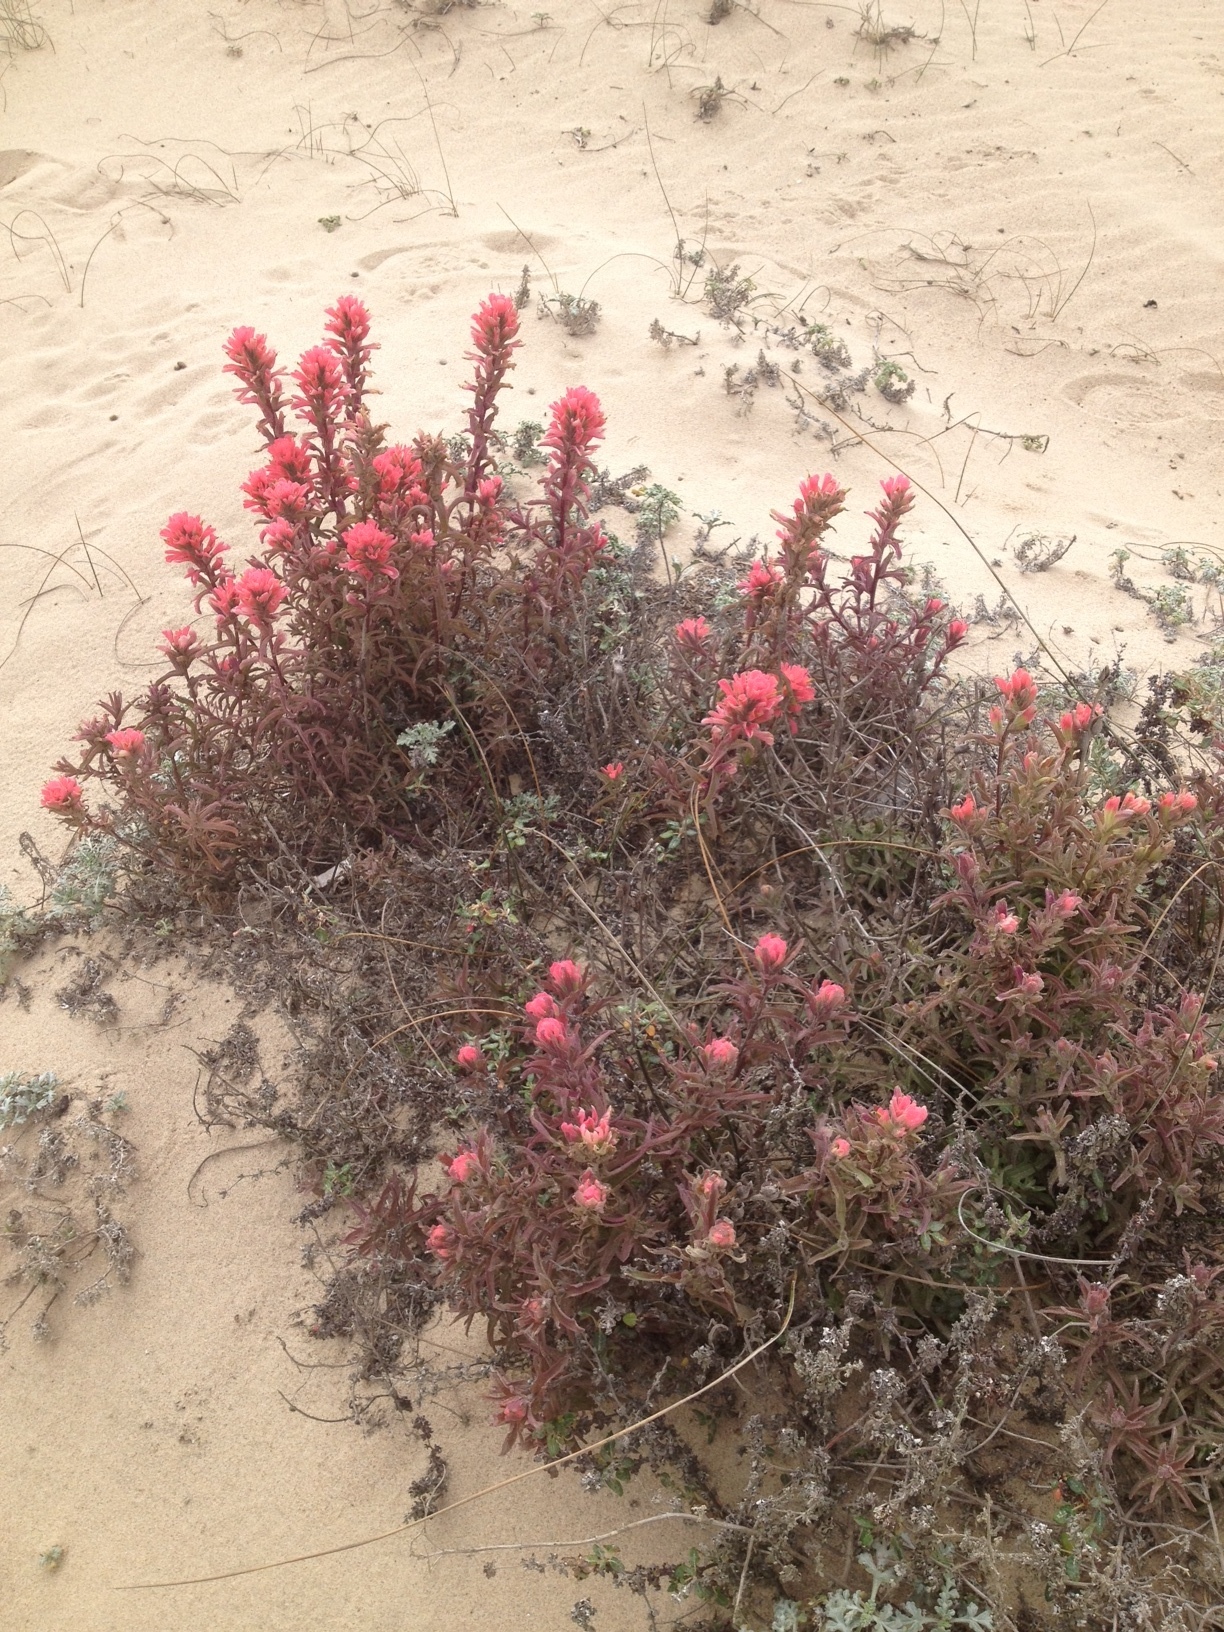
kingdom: Plantae
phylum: Tracheophyta
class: Magnoliopsida
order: Lamiales
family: Orobanchaceae
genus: Castilleja
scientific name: Castilleja affinis
